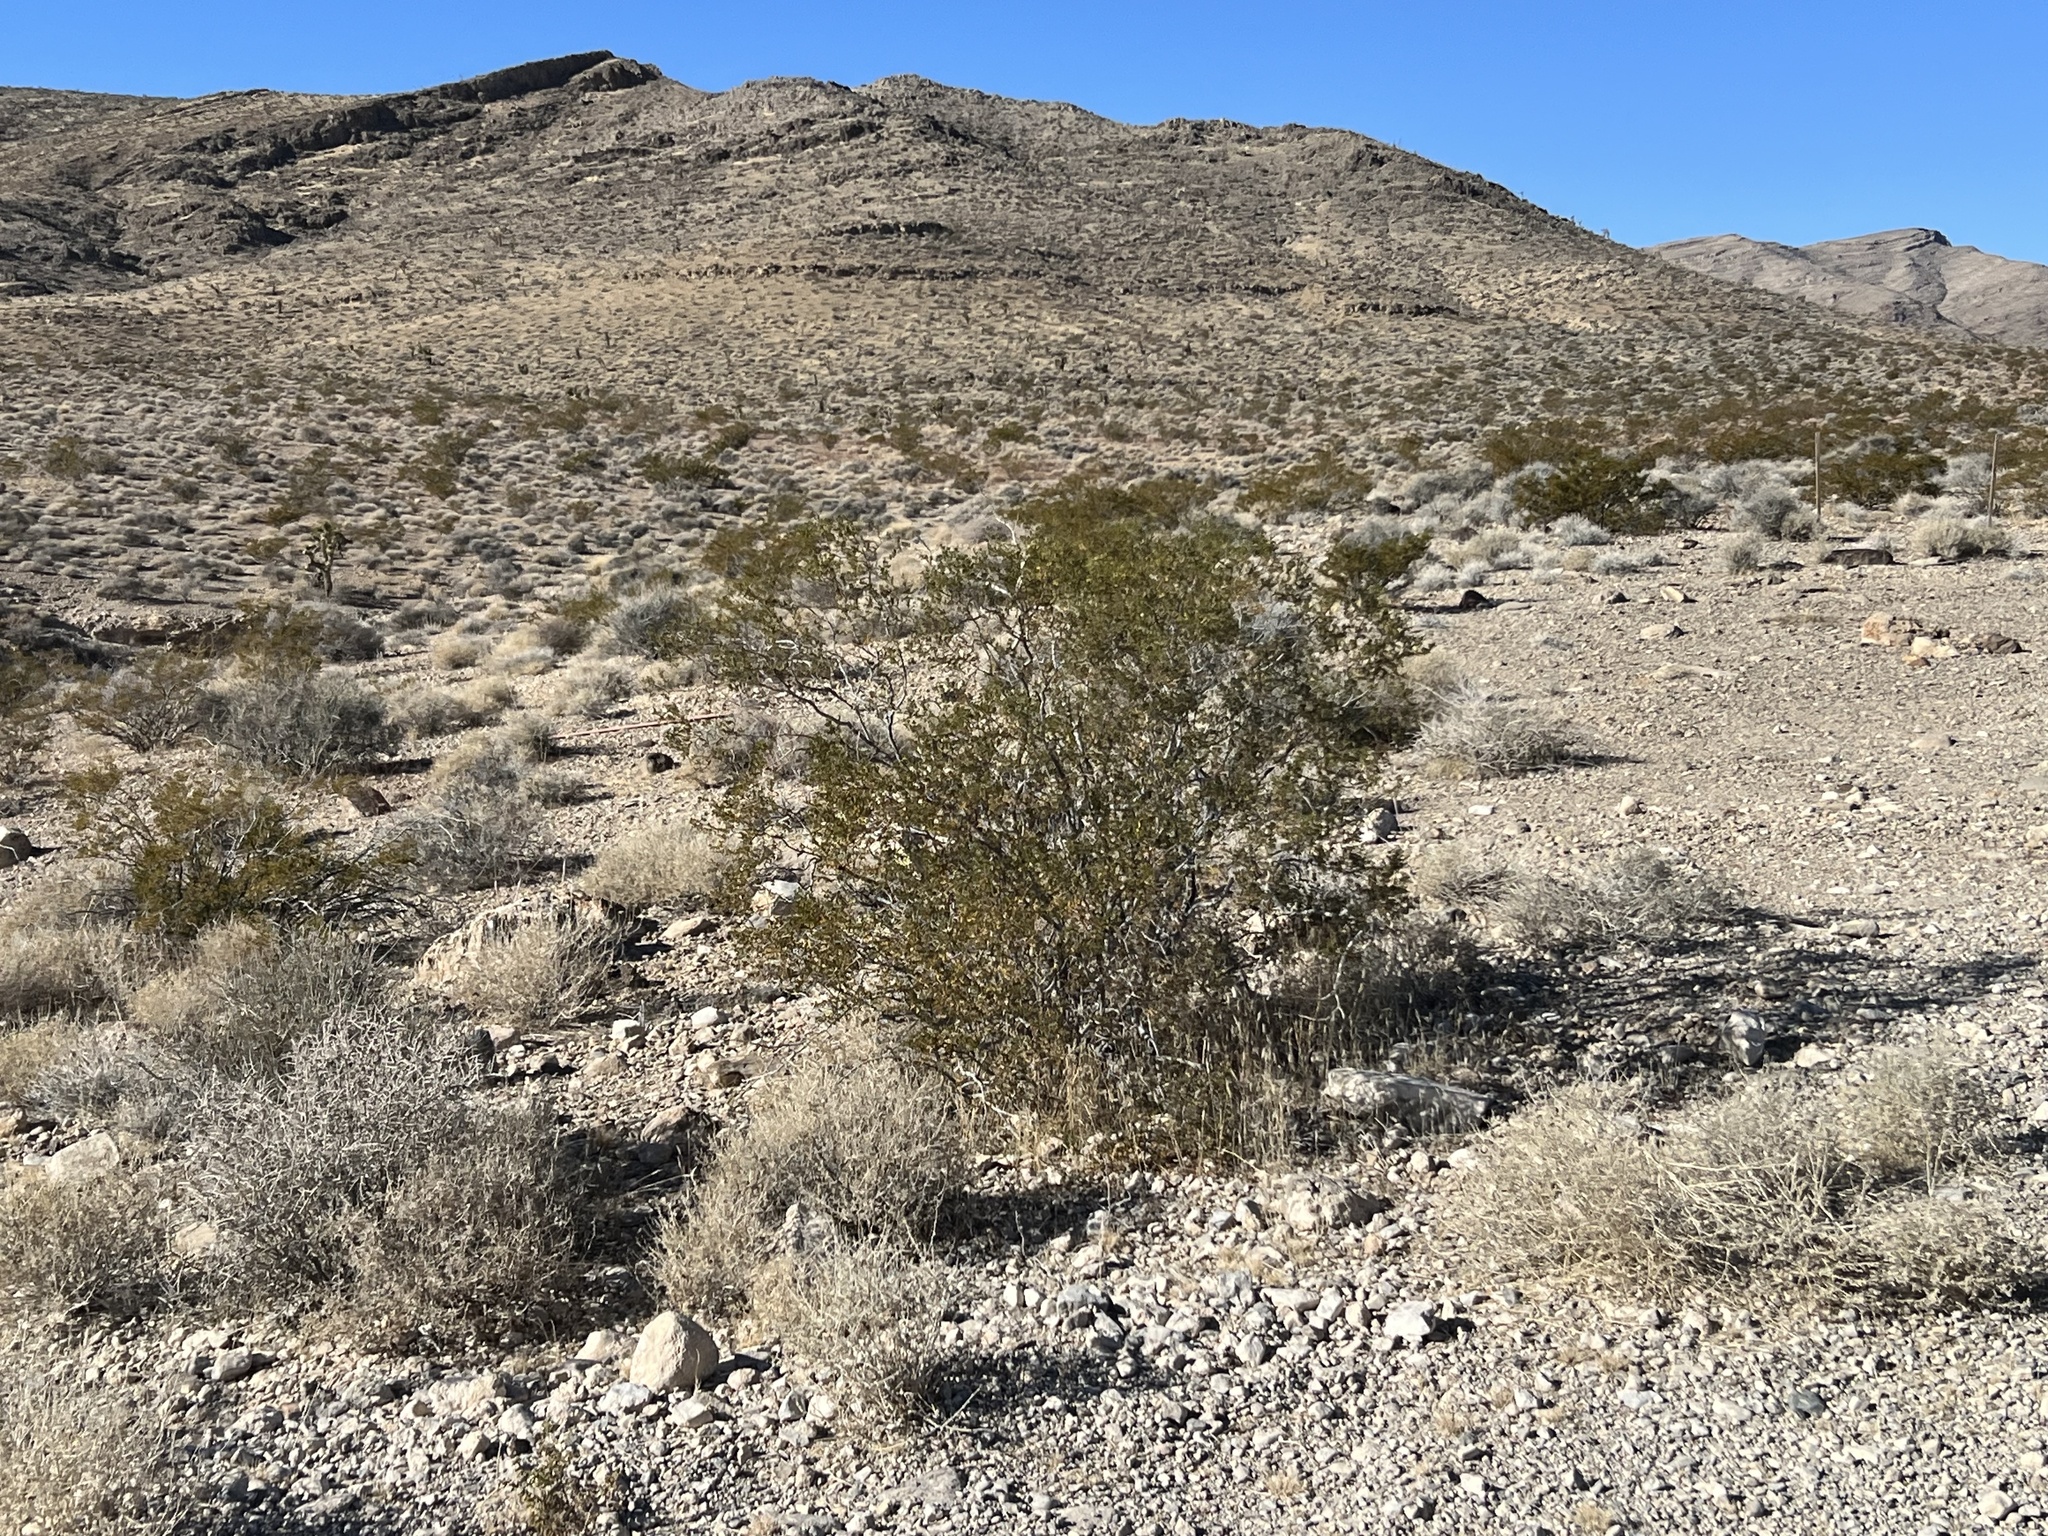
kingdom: Plantae
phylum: Tracheophyta
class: Magnoliopsida
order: Zygophyllales
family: Zygophyllaceae
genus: Larrea
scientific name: Larrea tridentata
